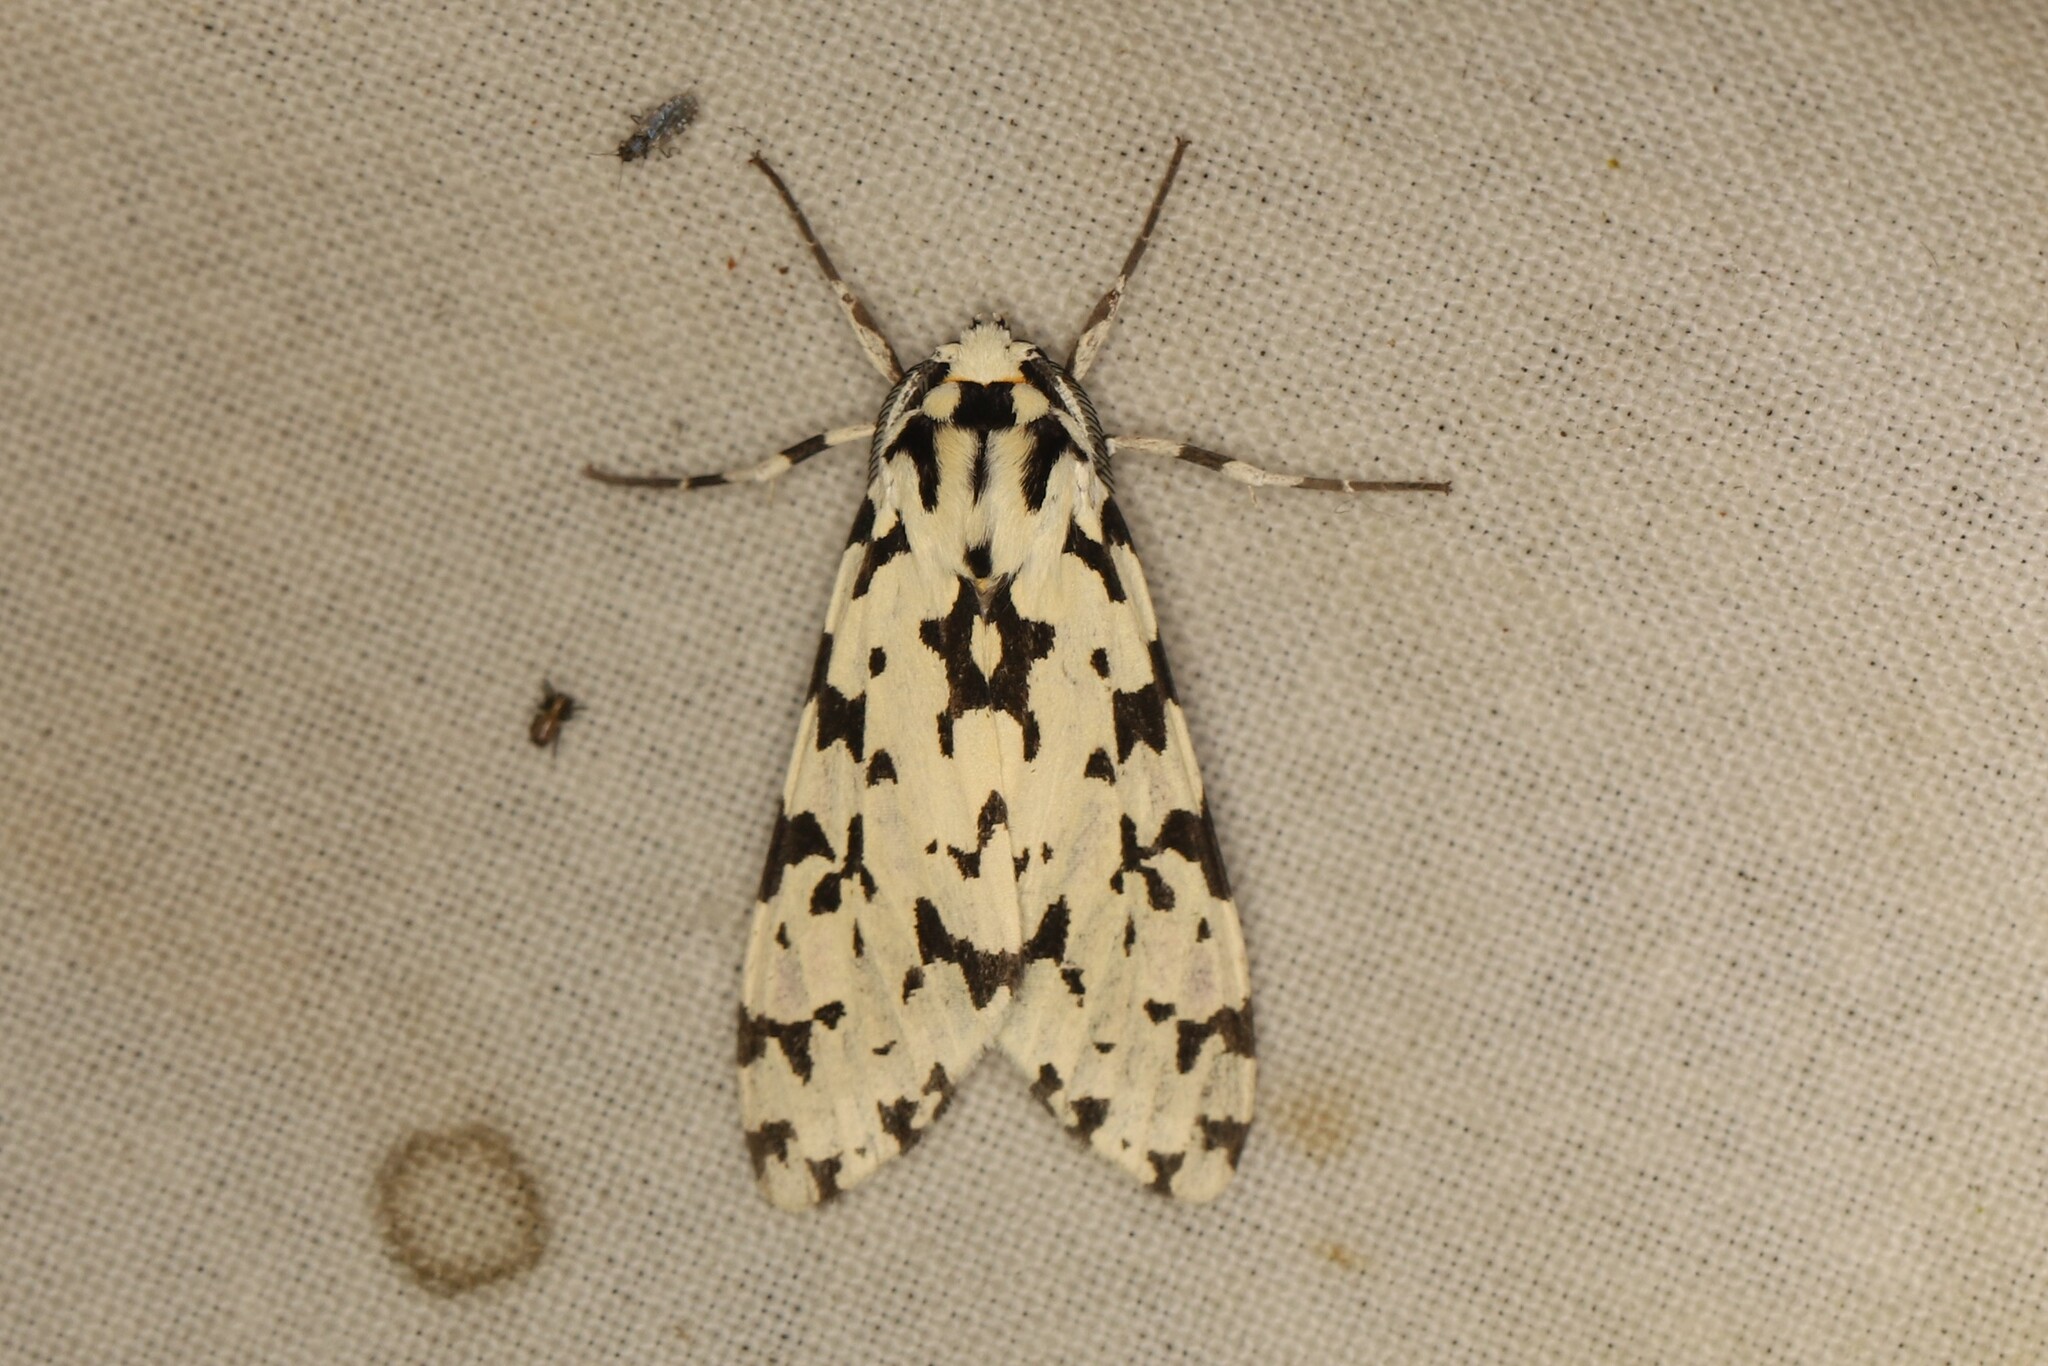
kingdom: Animalia
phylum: Arthropoda
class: Insecta
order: Lepidoptera
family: Erebidae
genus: Eucereon
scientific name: Eucereon tigrata
